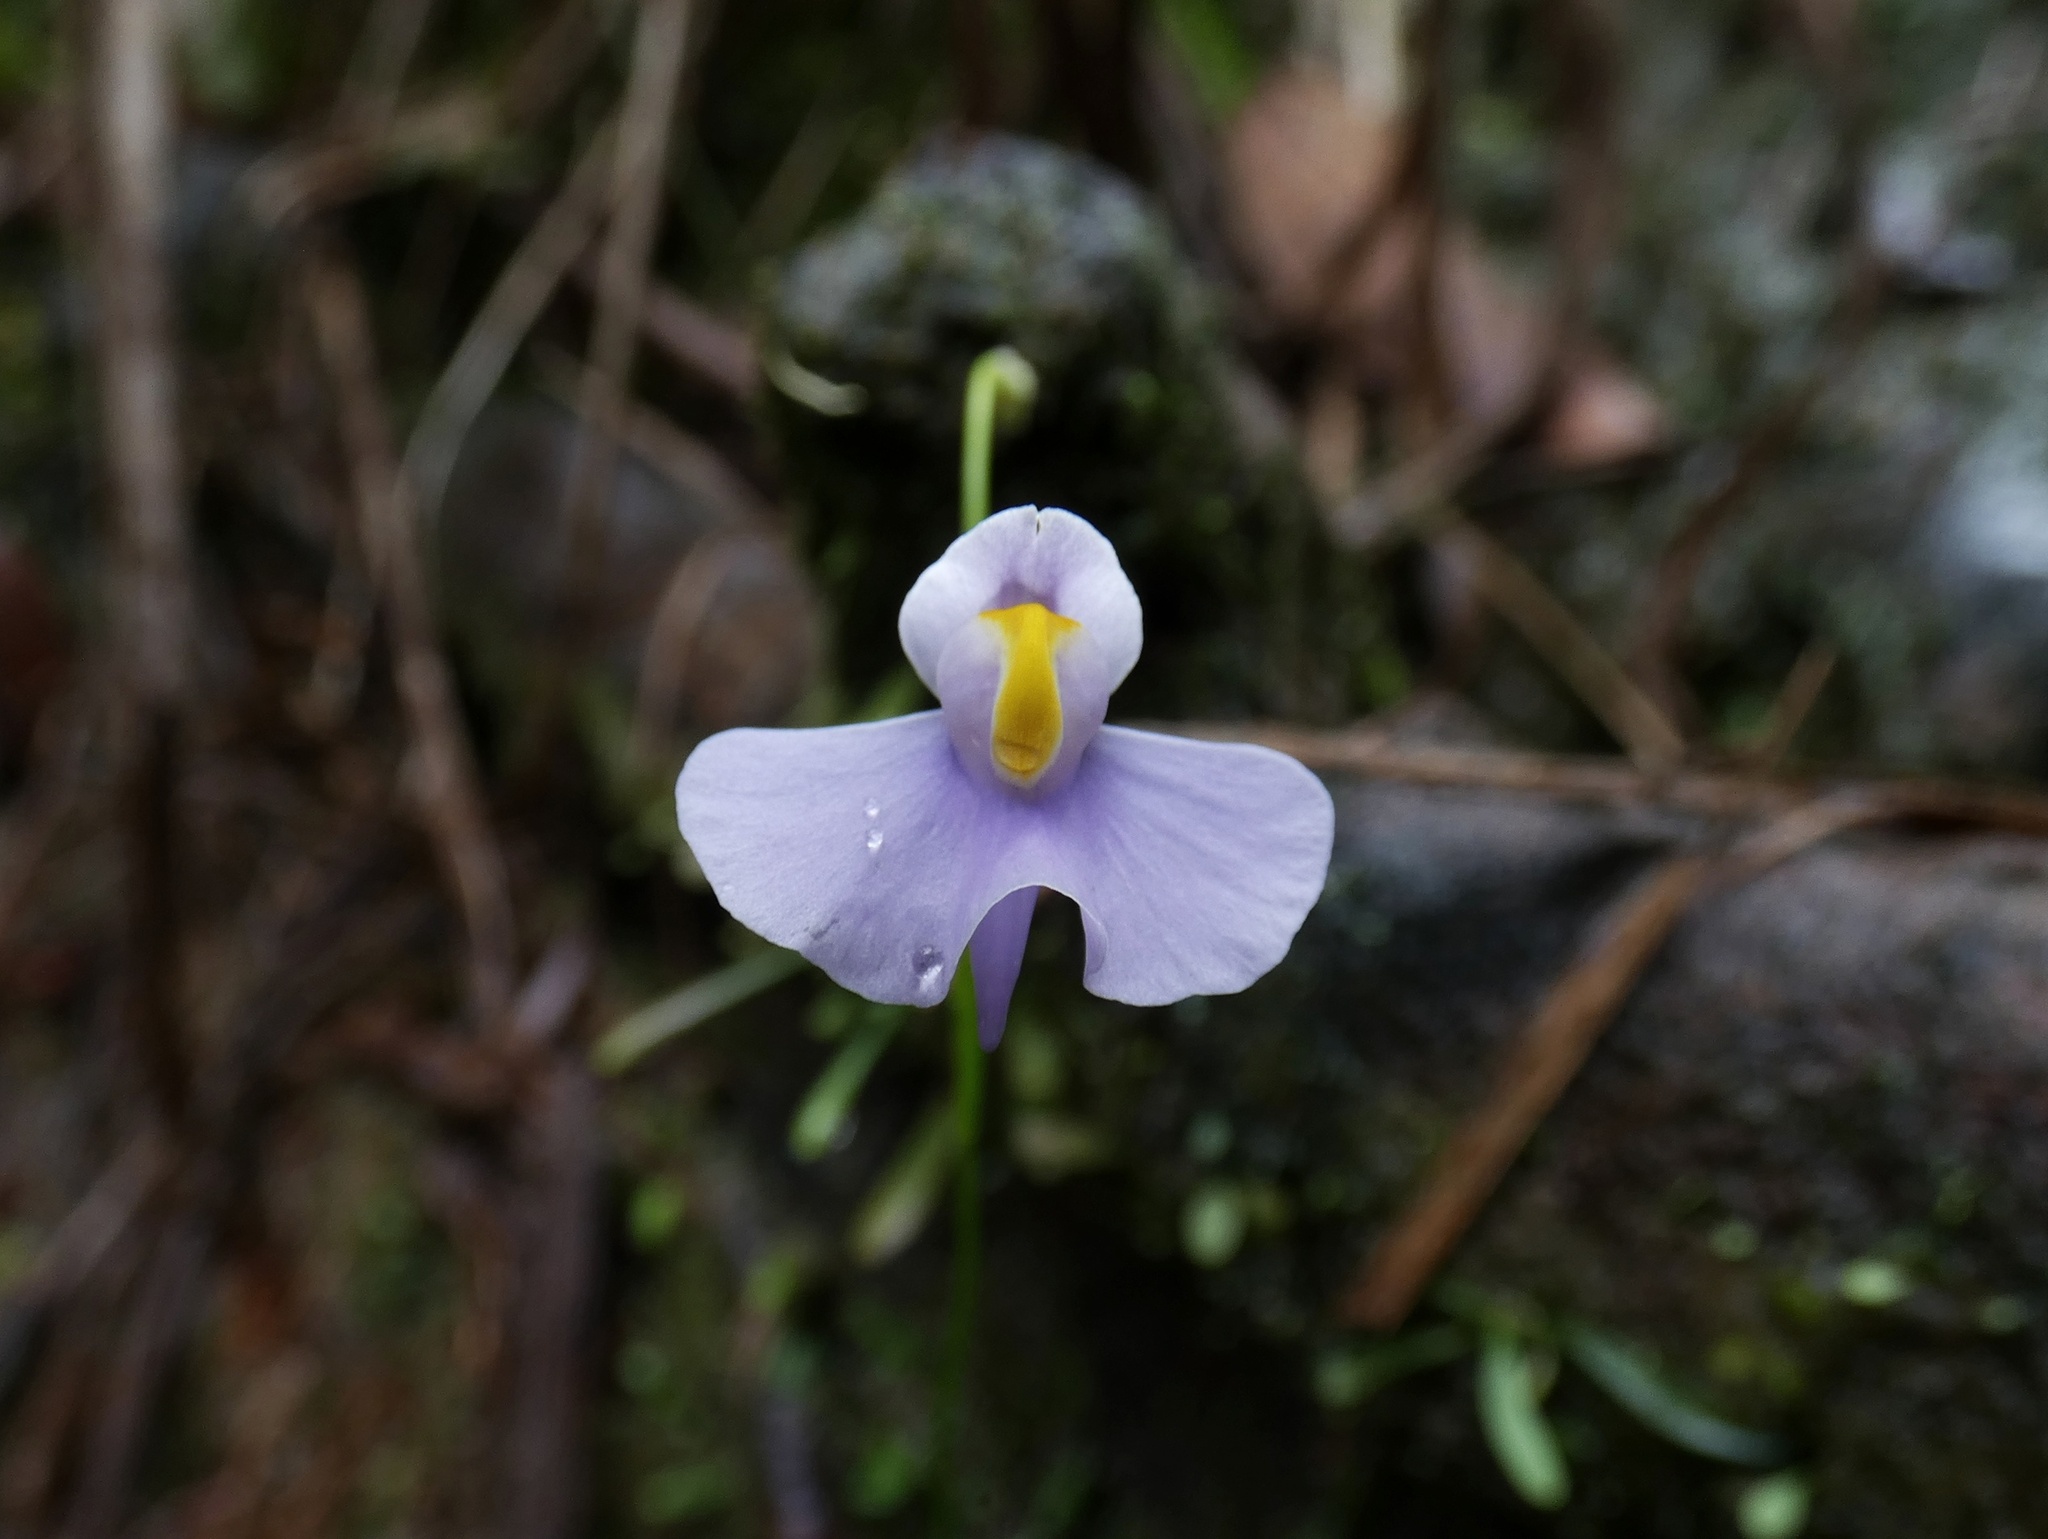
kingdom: Plantae
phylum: Tracheophyta
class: Magnoliopsida
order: Lamiales
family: Lentibulariaceae
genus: Utricularia
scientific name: Utricularia panamensis
